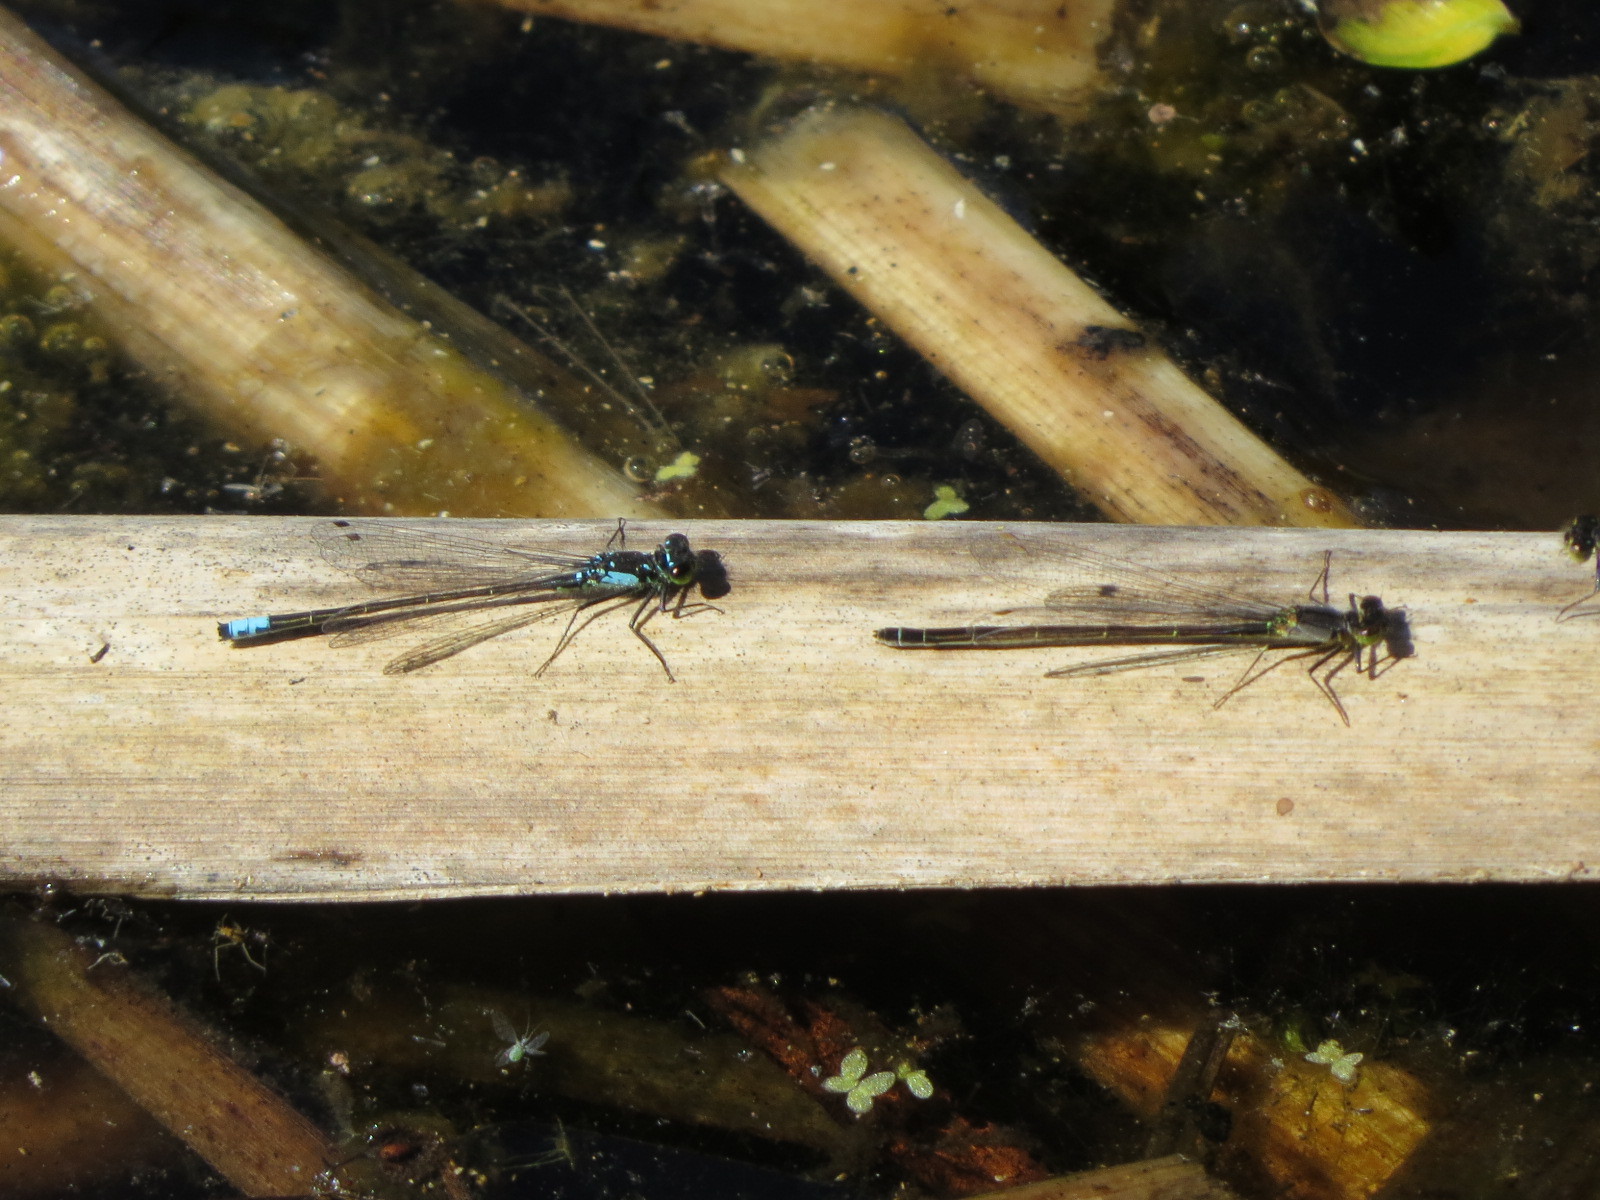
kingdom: Animalia
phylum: Arthropoda
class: Insecta
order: Odonata
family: Coenagrionidae
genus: Ischnura
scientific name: Ischnura cervula
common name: Pacific forktail
